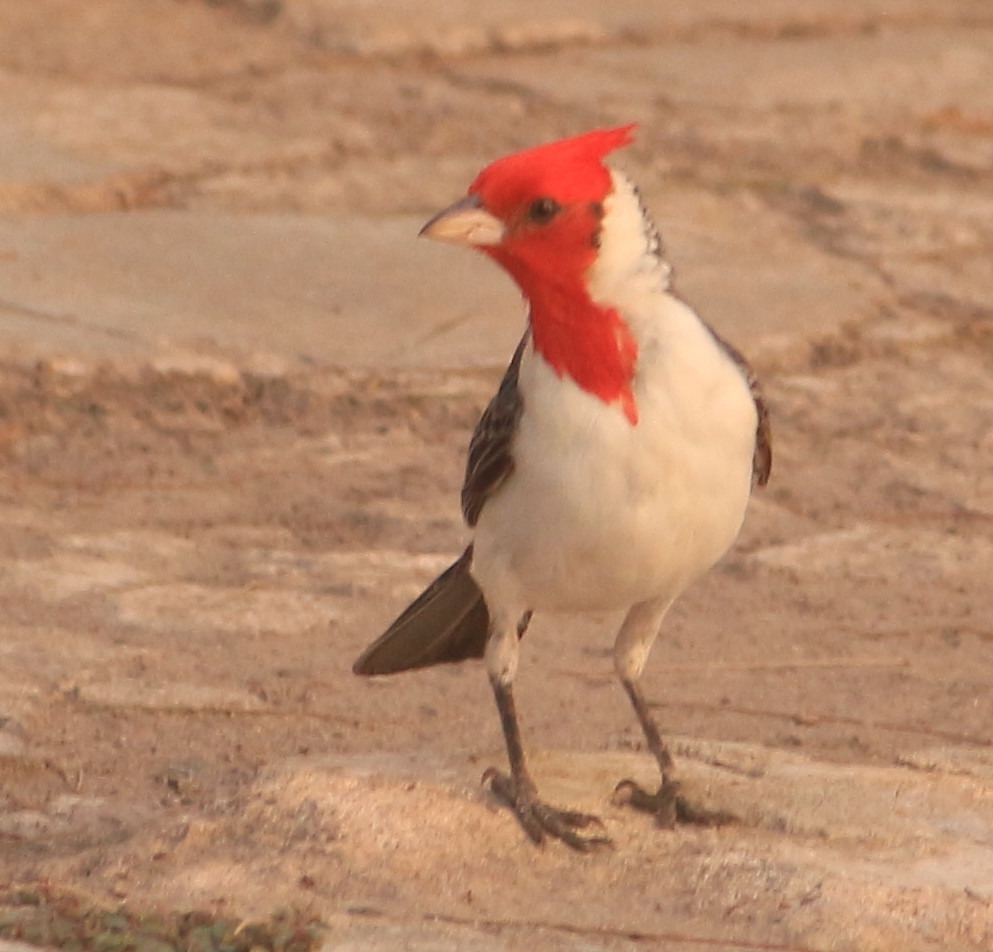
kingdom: Animalia
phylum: Chordata
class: Aves
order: Passeriformes
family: Thraupidae
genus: Paroaria
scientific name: Paroaria coronata
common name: Red-crested cardinal
